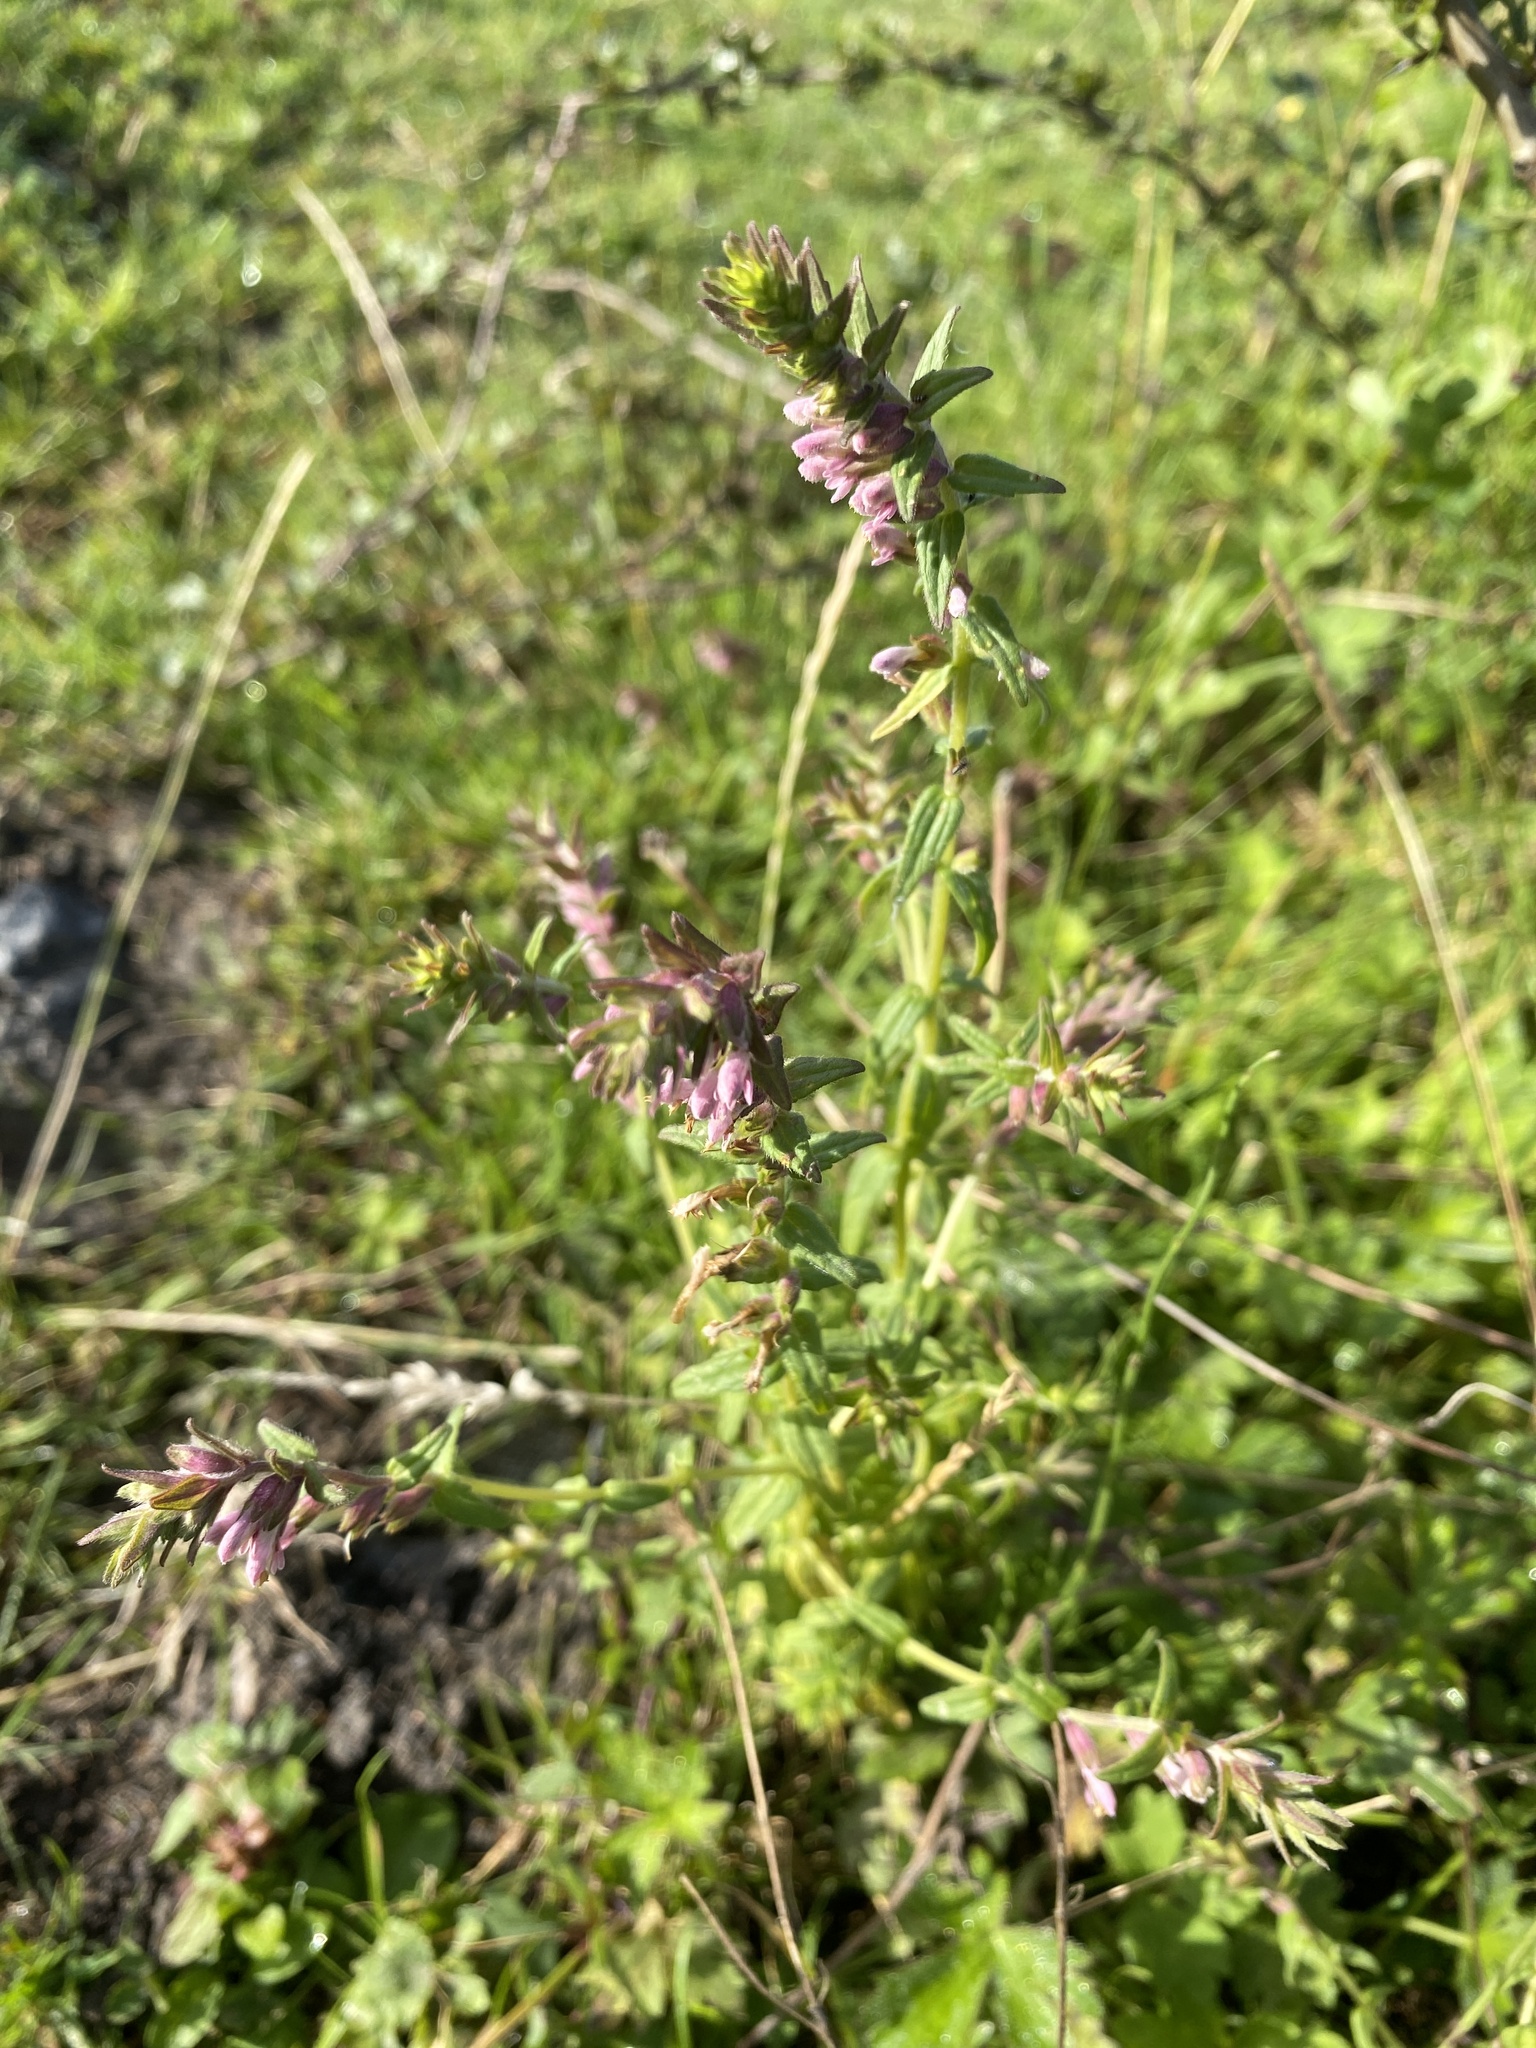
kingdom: Plantae
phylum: Tracheophyta
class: Magnoliopsida
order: Lamiales
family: Orobanchaceae
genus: Odontites
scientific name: Odontites vernus
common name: Red bartsia
